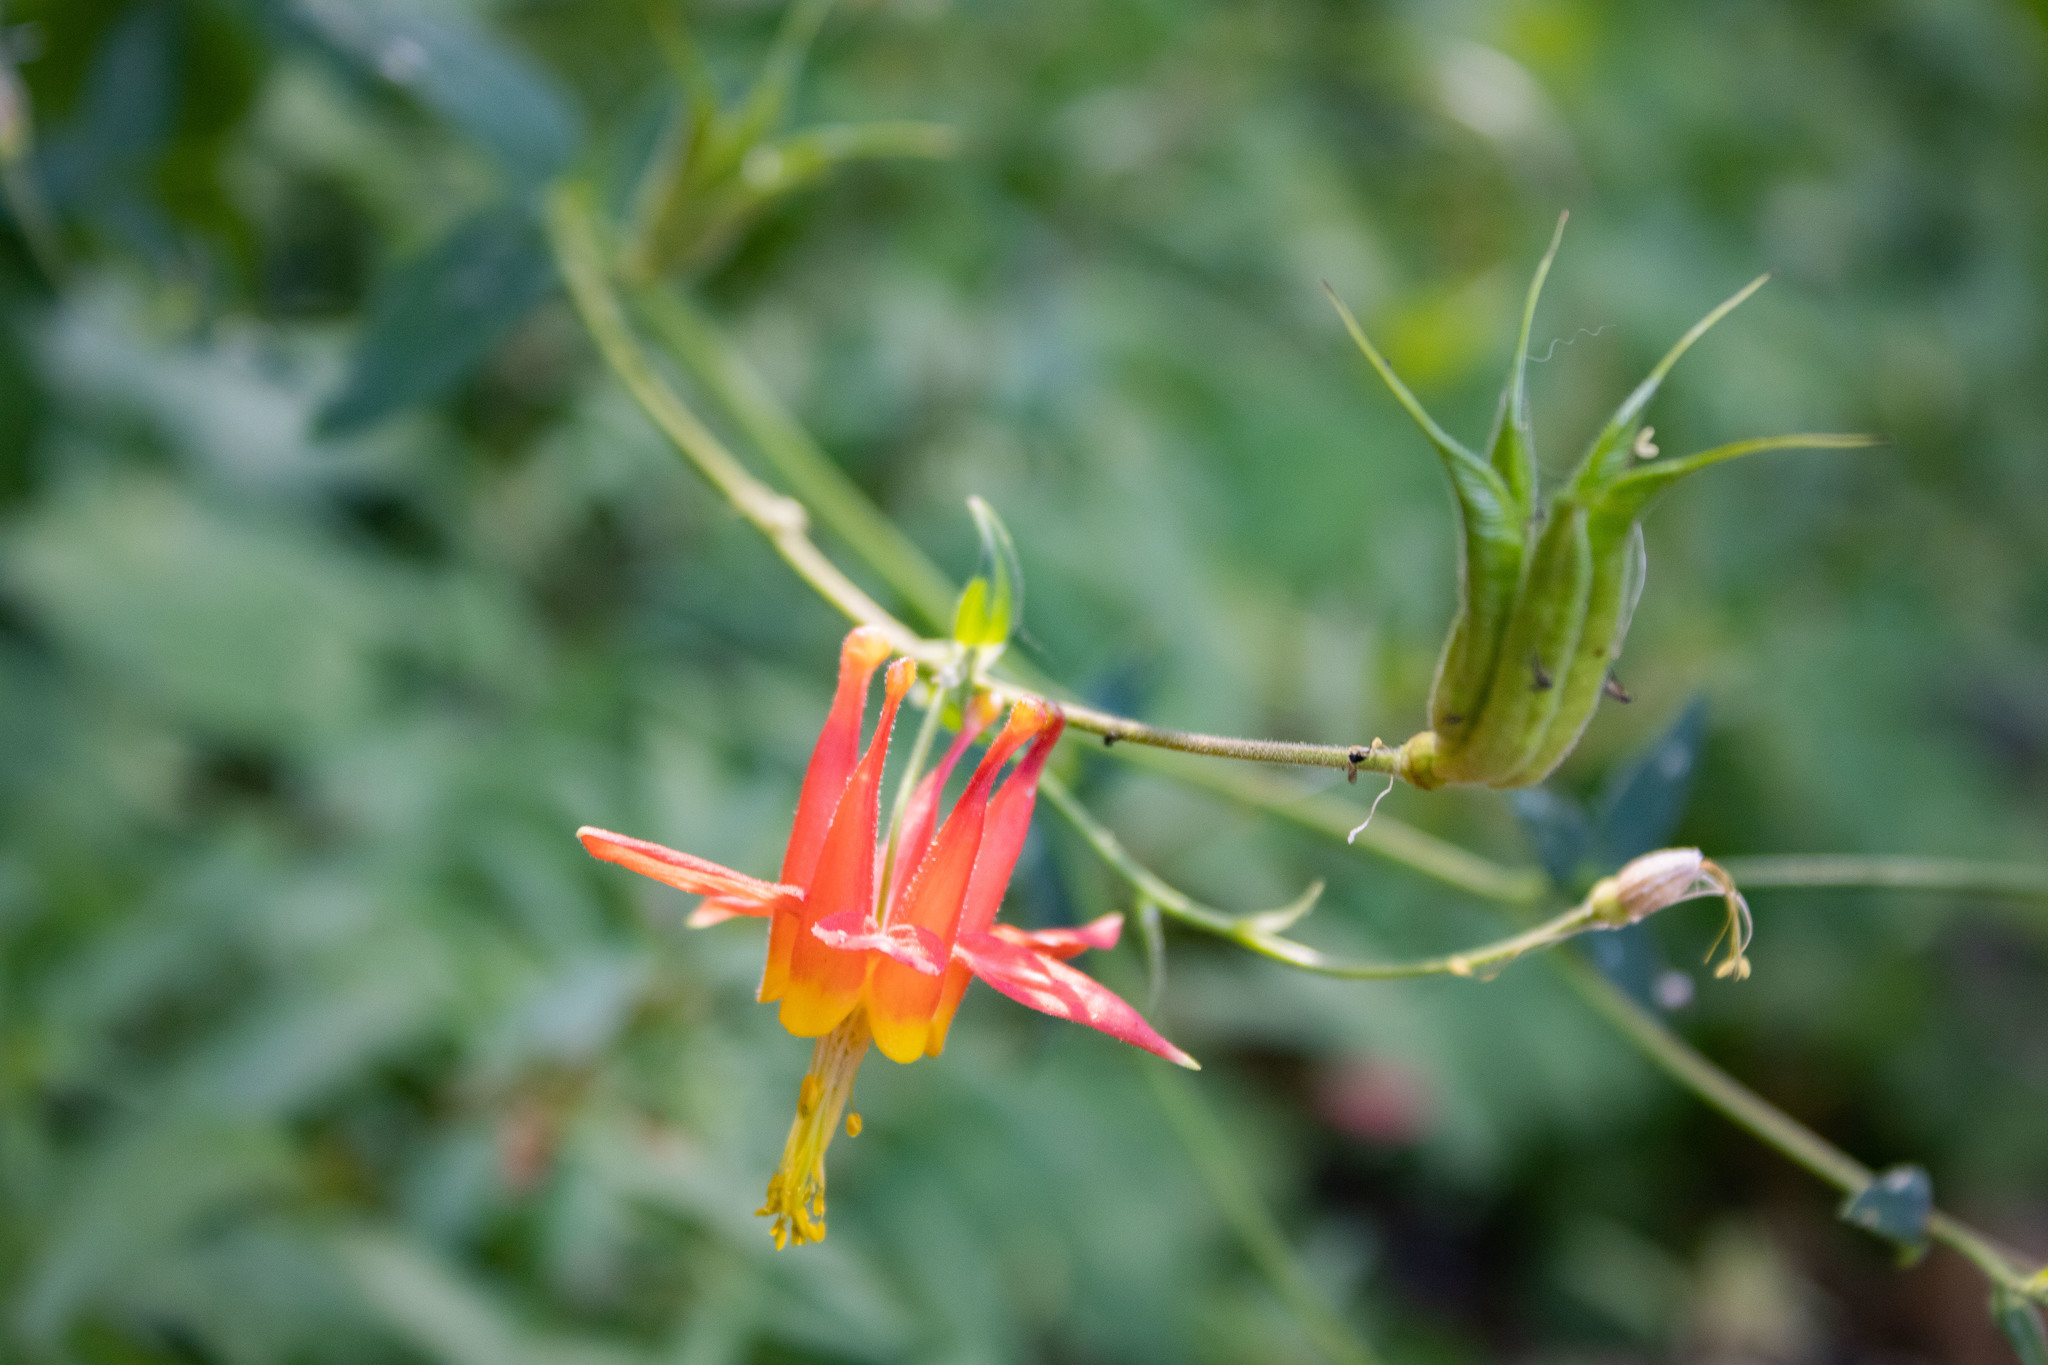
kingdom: Plantae
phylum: Tracheophyta
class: Magnoliopsida
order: Ranunculales
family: Ranunculaceae
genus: Aquilegia
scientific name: Aquilegia formosa
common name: Sitka columbine
